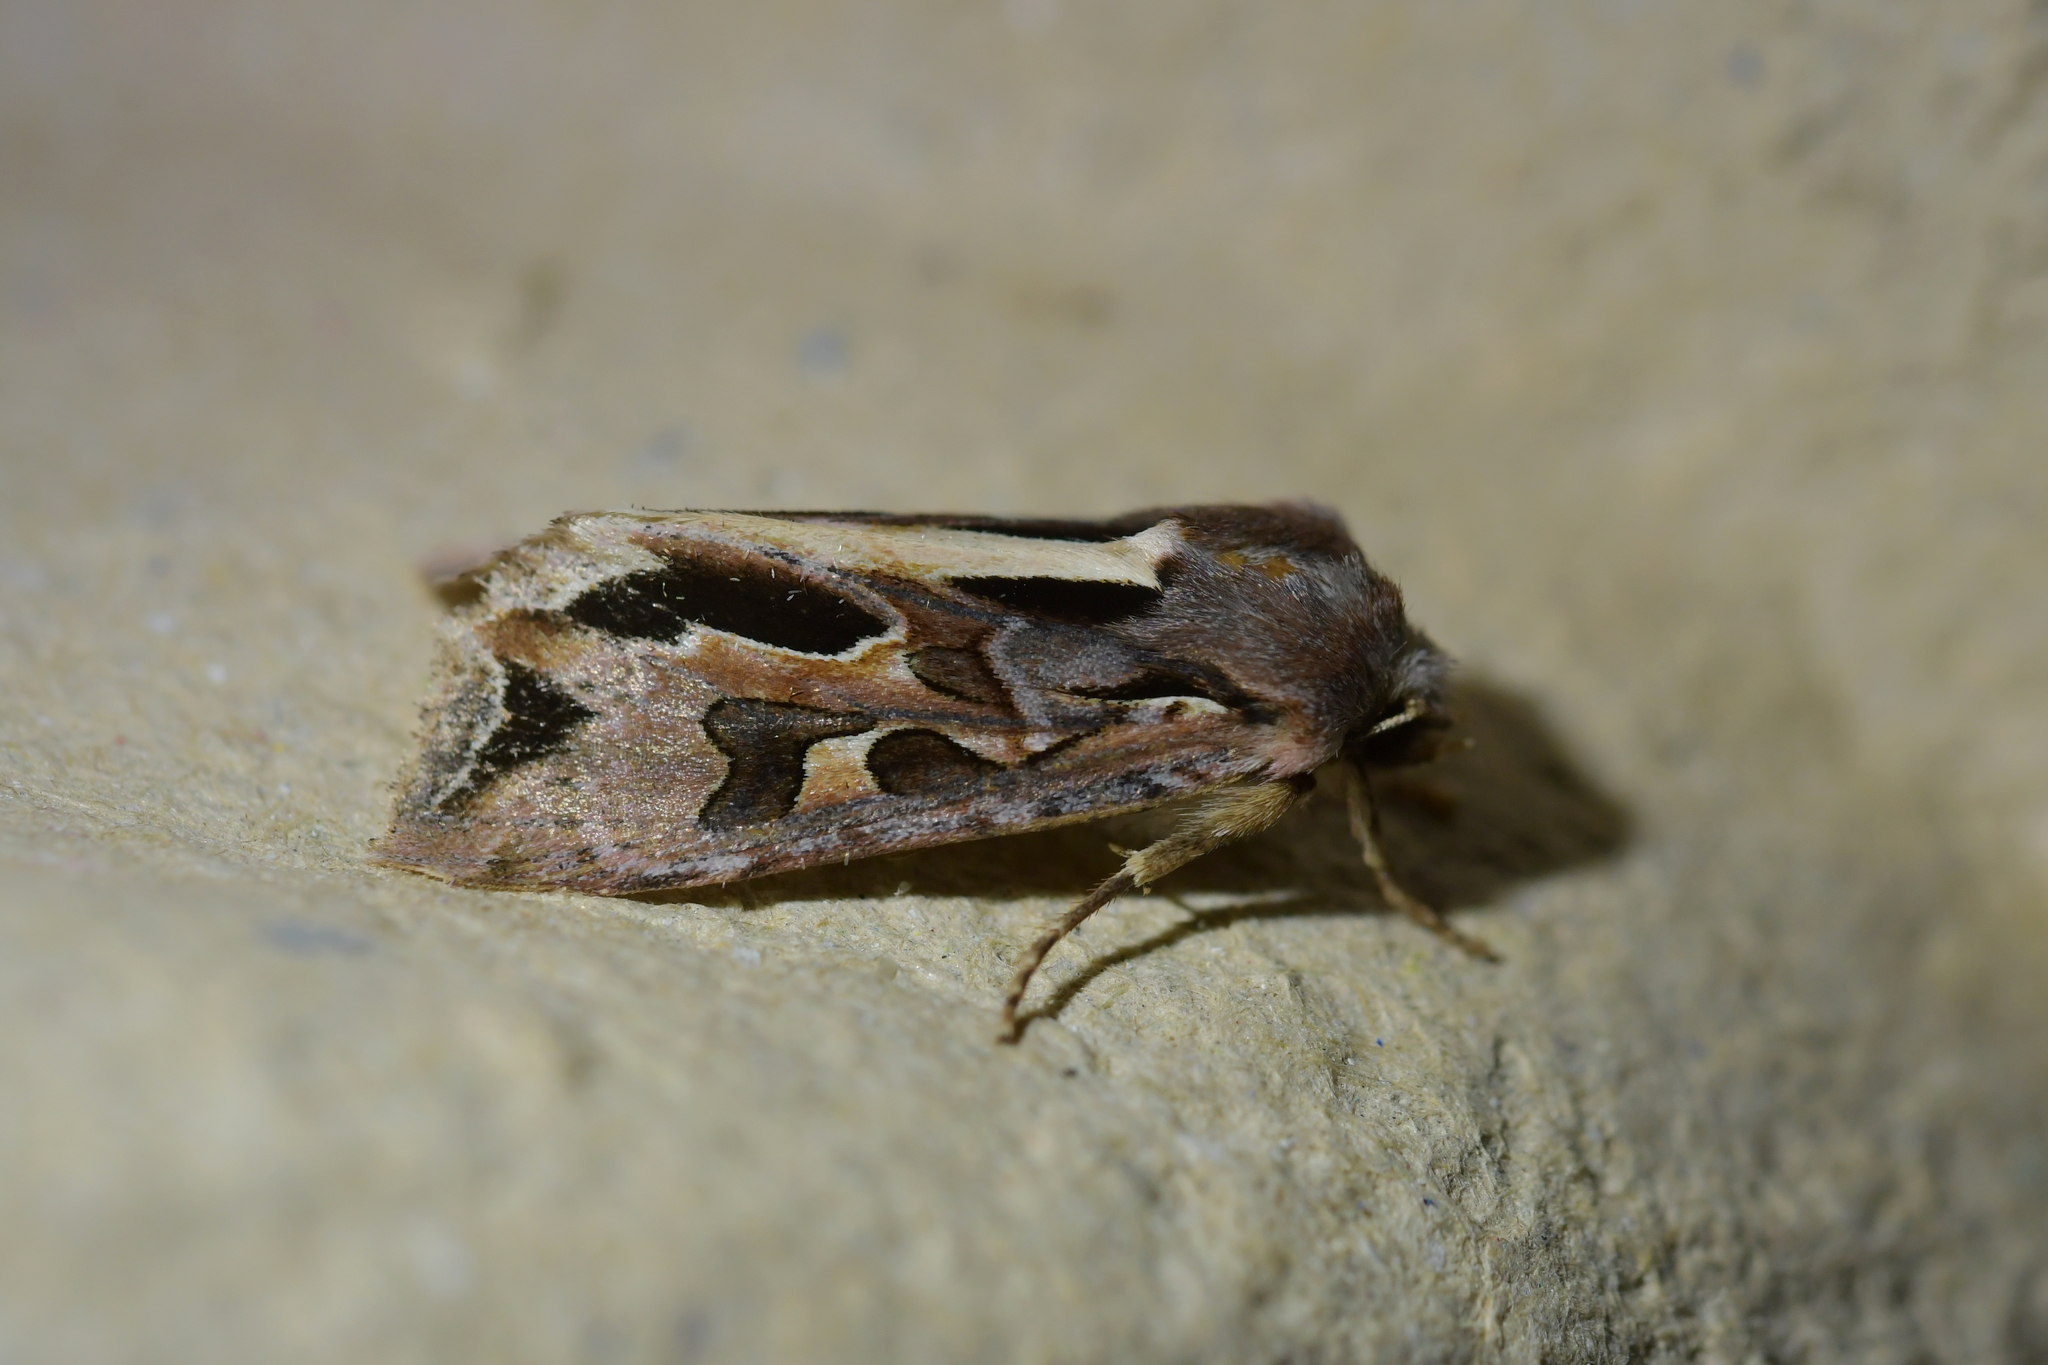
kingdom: Animalia
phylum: Arthropoda
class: Insecta
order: Lepidoptera
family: Noctuidae
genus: Ichneutica
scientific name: Ichneutica
